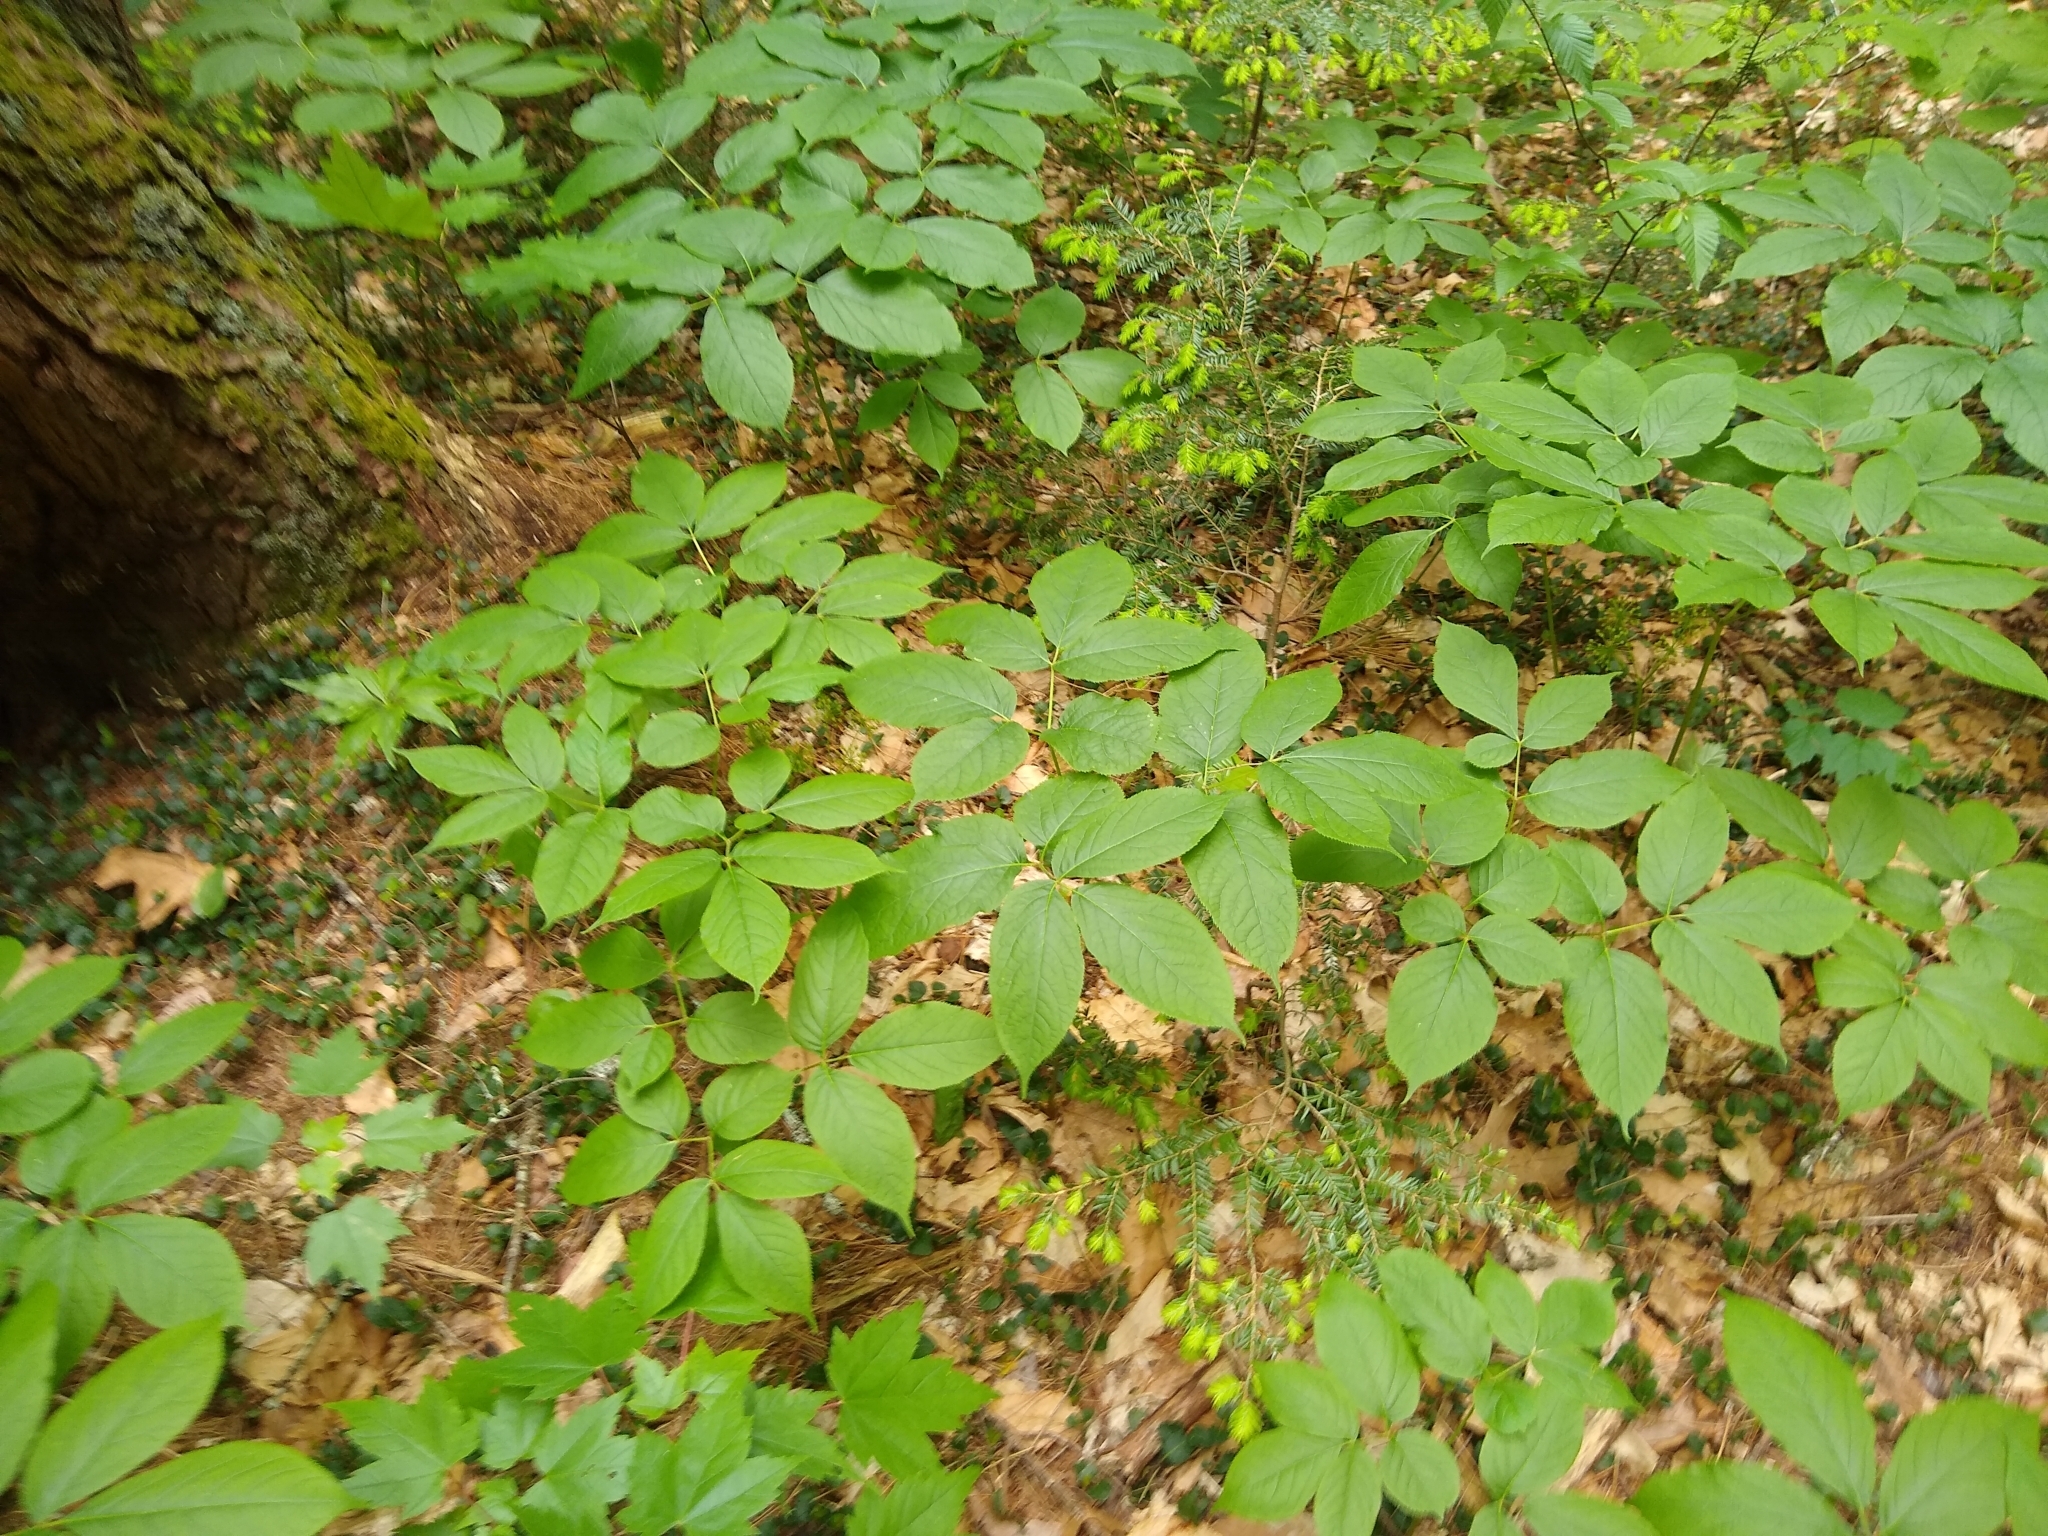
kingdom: Plantae
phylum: Tracheophyta
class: Magnoliopsida
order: Apiales
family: Araliaceae
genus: Aralia
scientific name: Aralia nudicaulis
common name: Wild sarsaparilla
